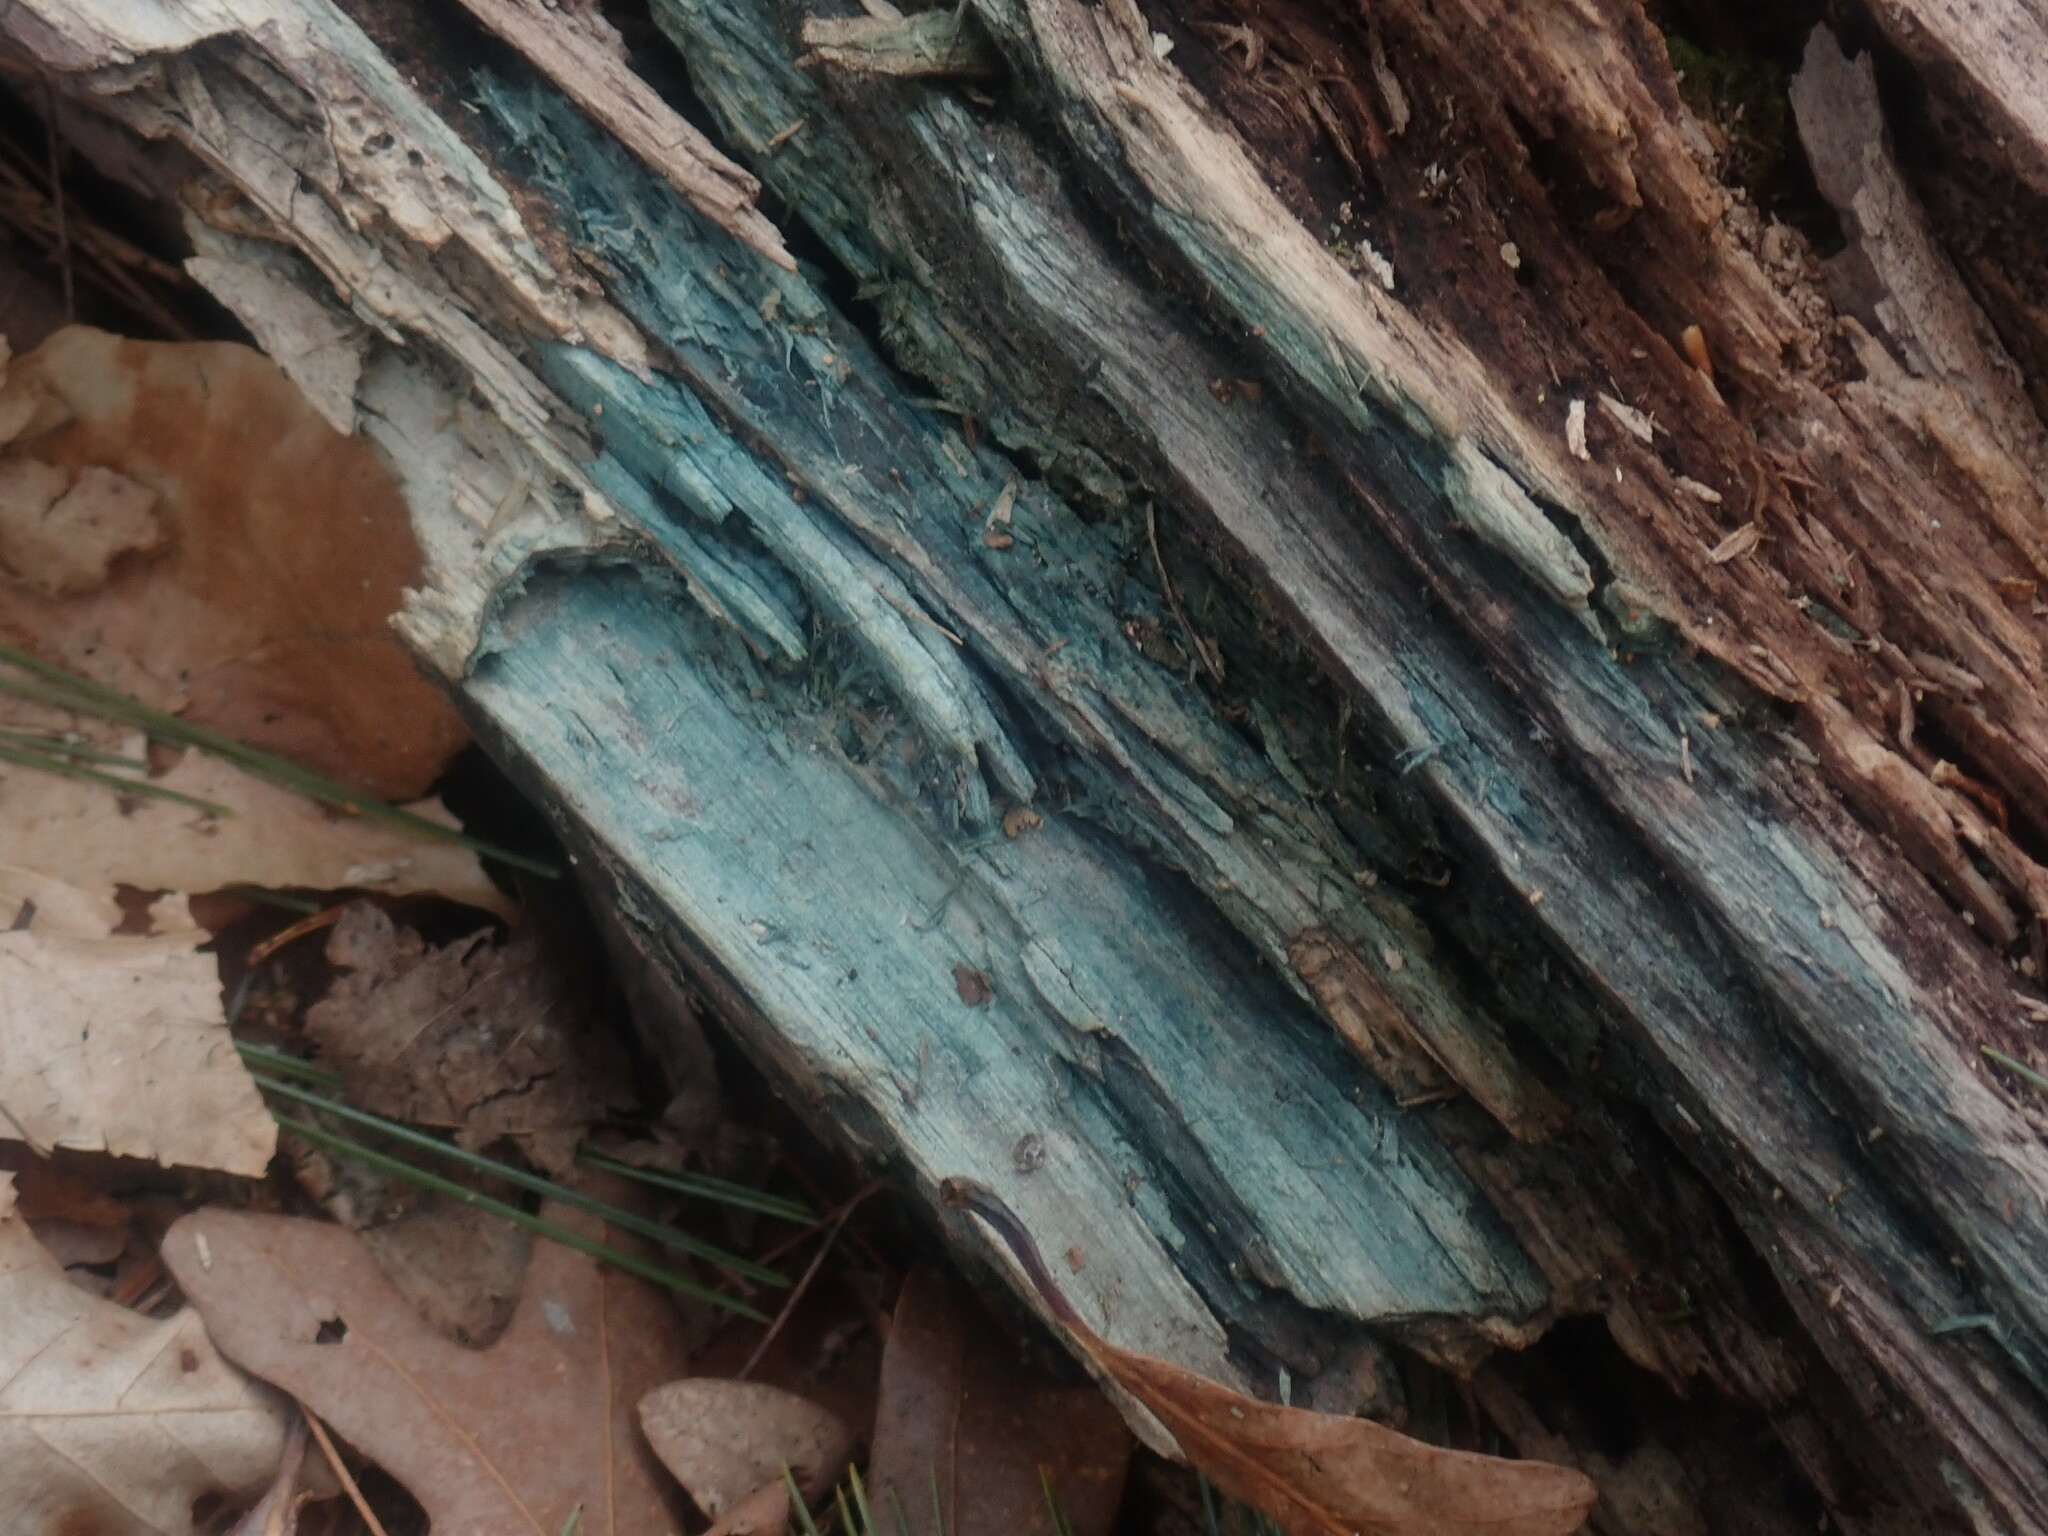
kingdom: Fungi
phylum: Ascomycota
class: Leotiomycetes
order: Helotiales
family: Chlorociboriaceae
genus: Chlorociboria
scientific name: Chlorociboria
